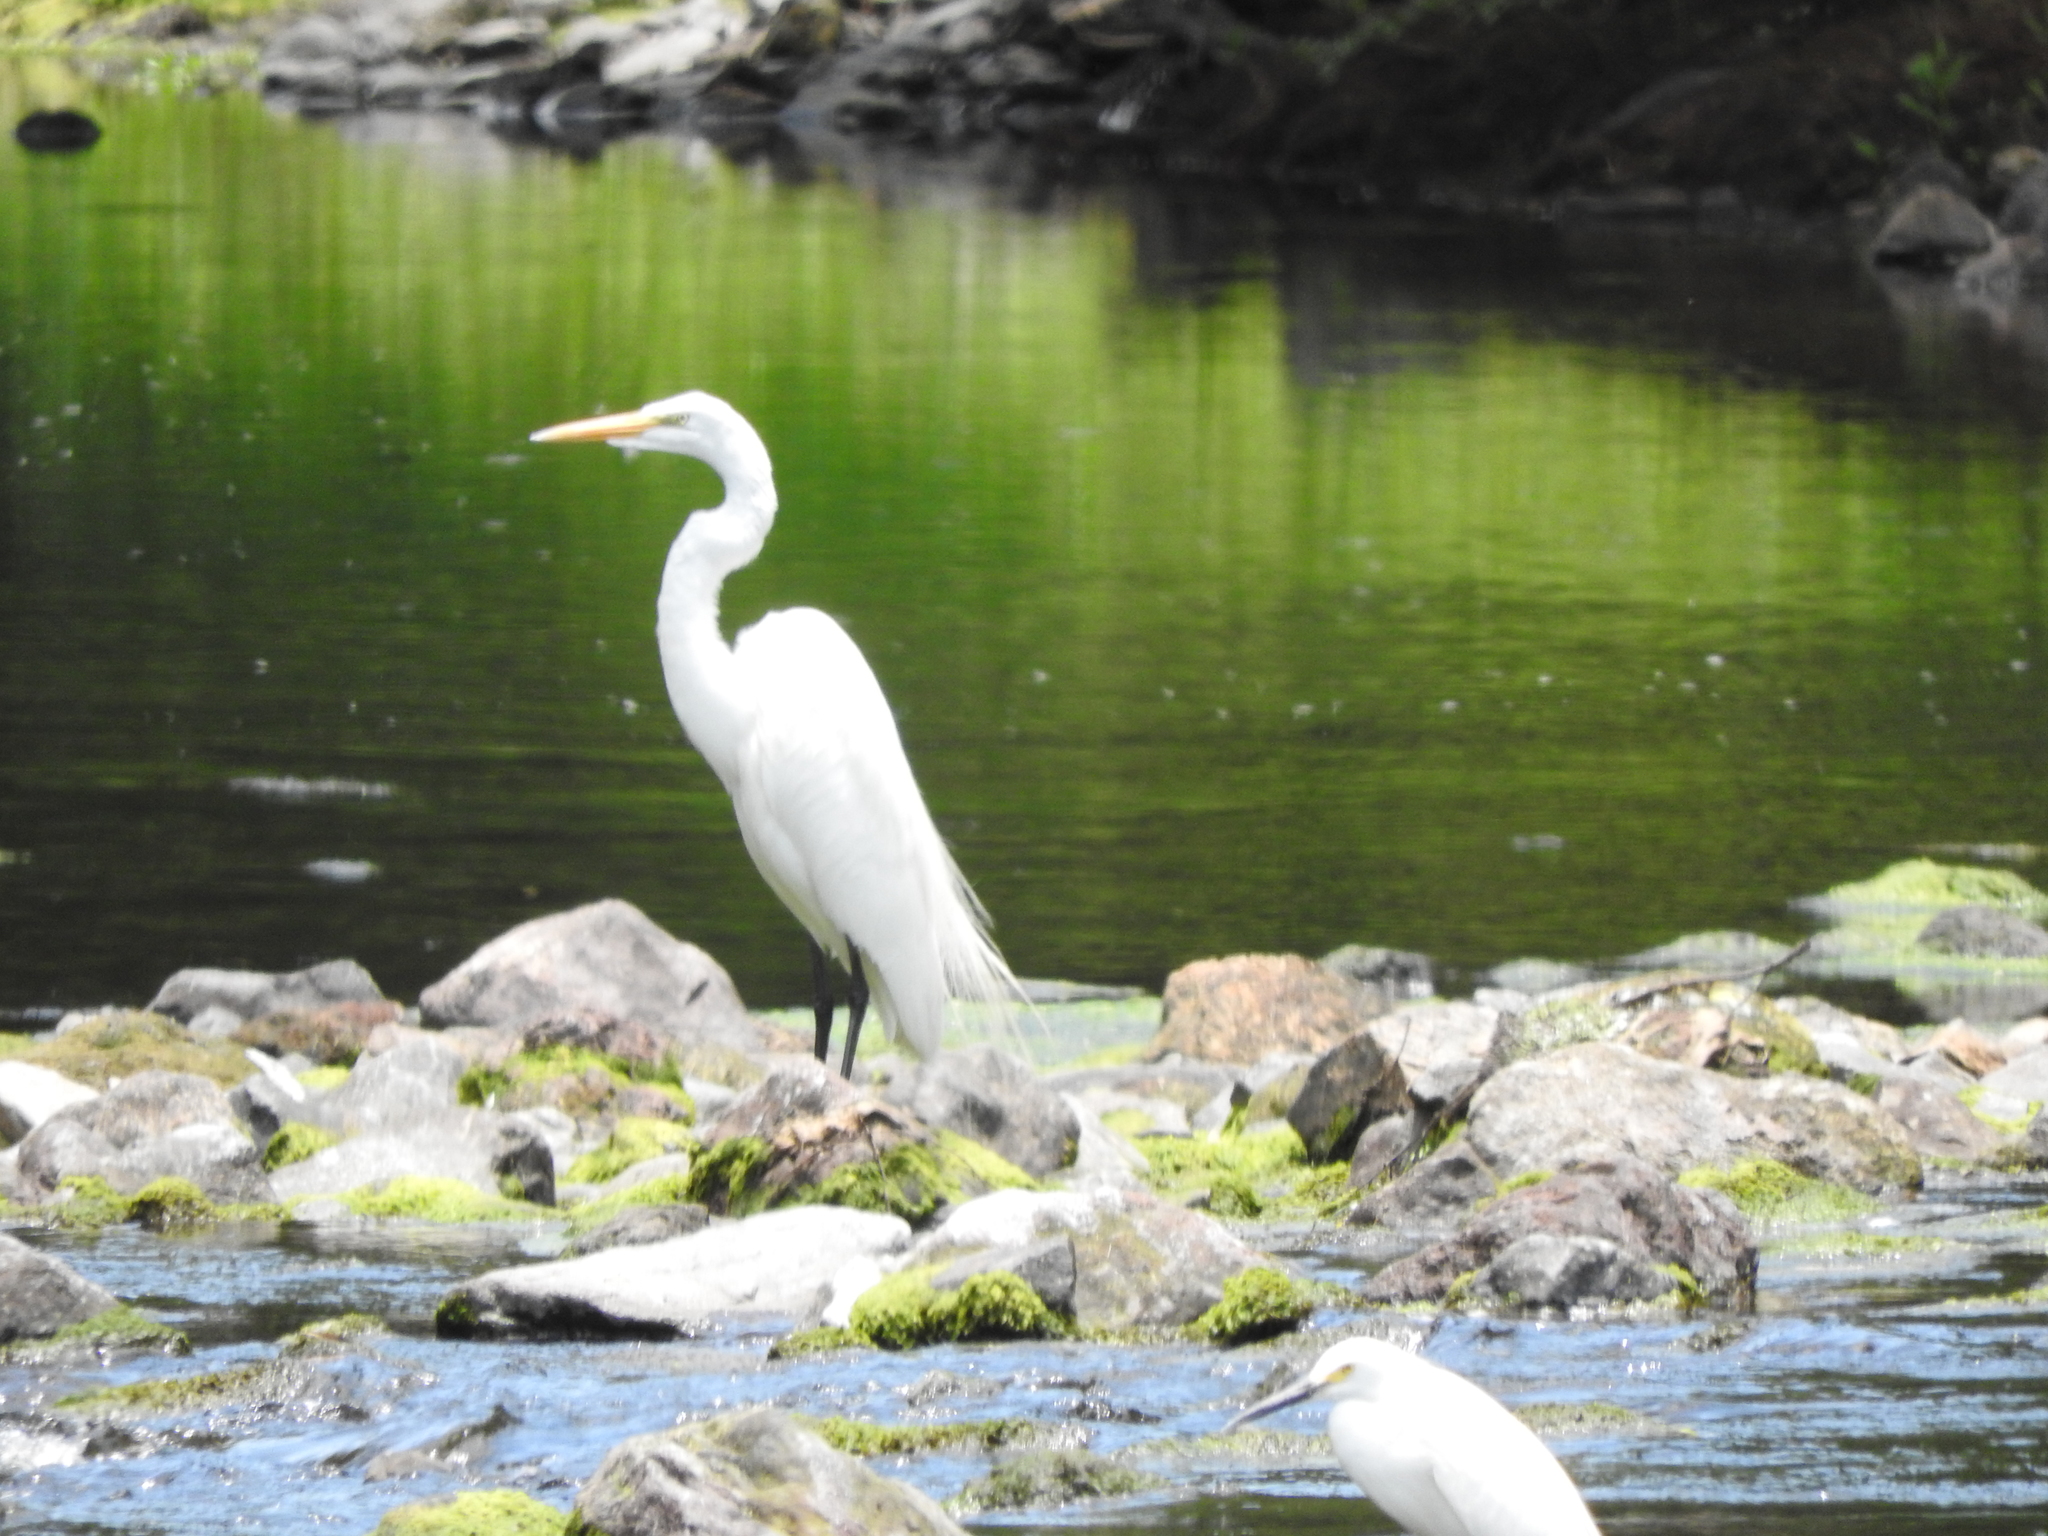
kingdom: Animalia
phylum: Chordata
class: Aves
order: Pelecaniformes
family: Ardeidae
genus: Ardea
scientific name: Ardea alba
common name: Great egret
